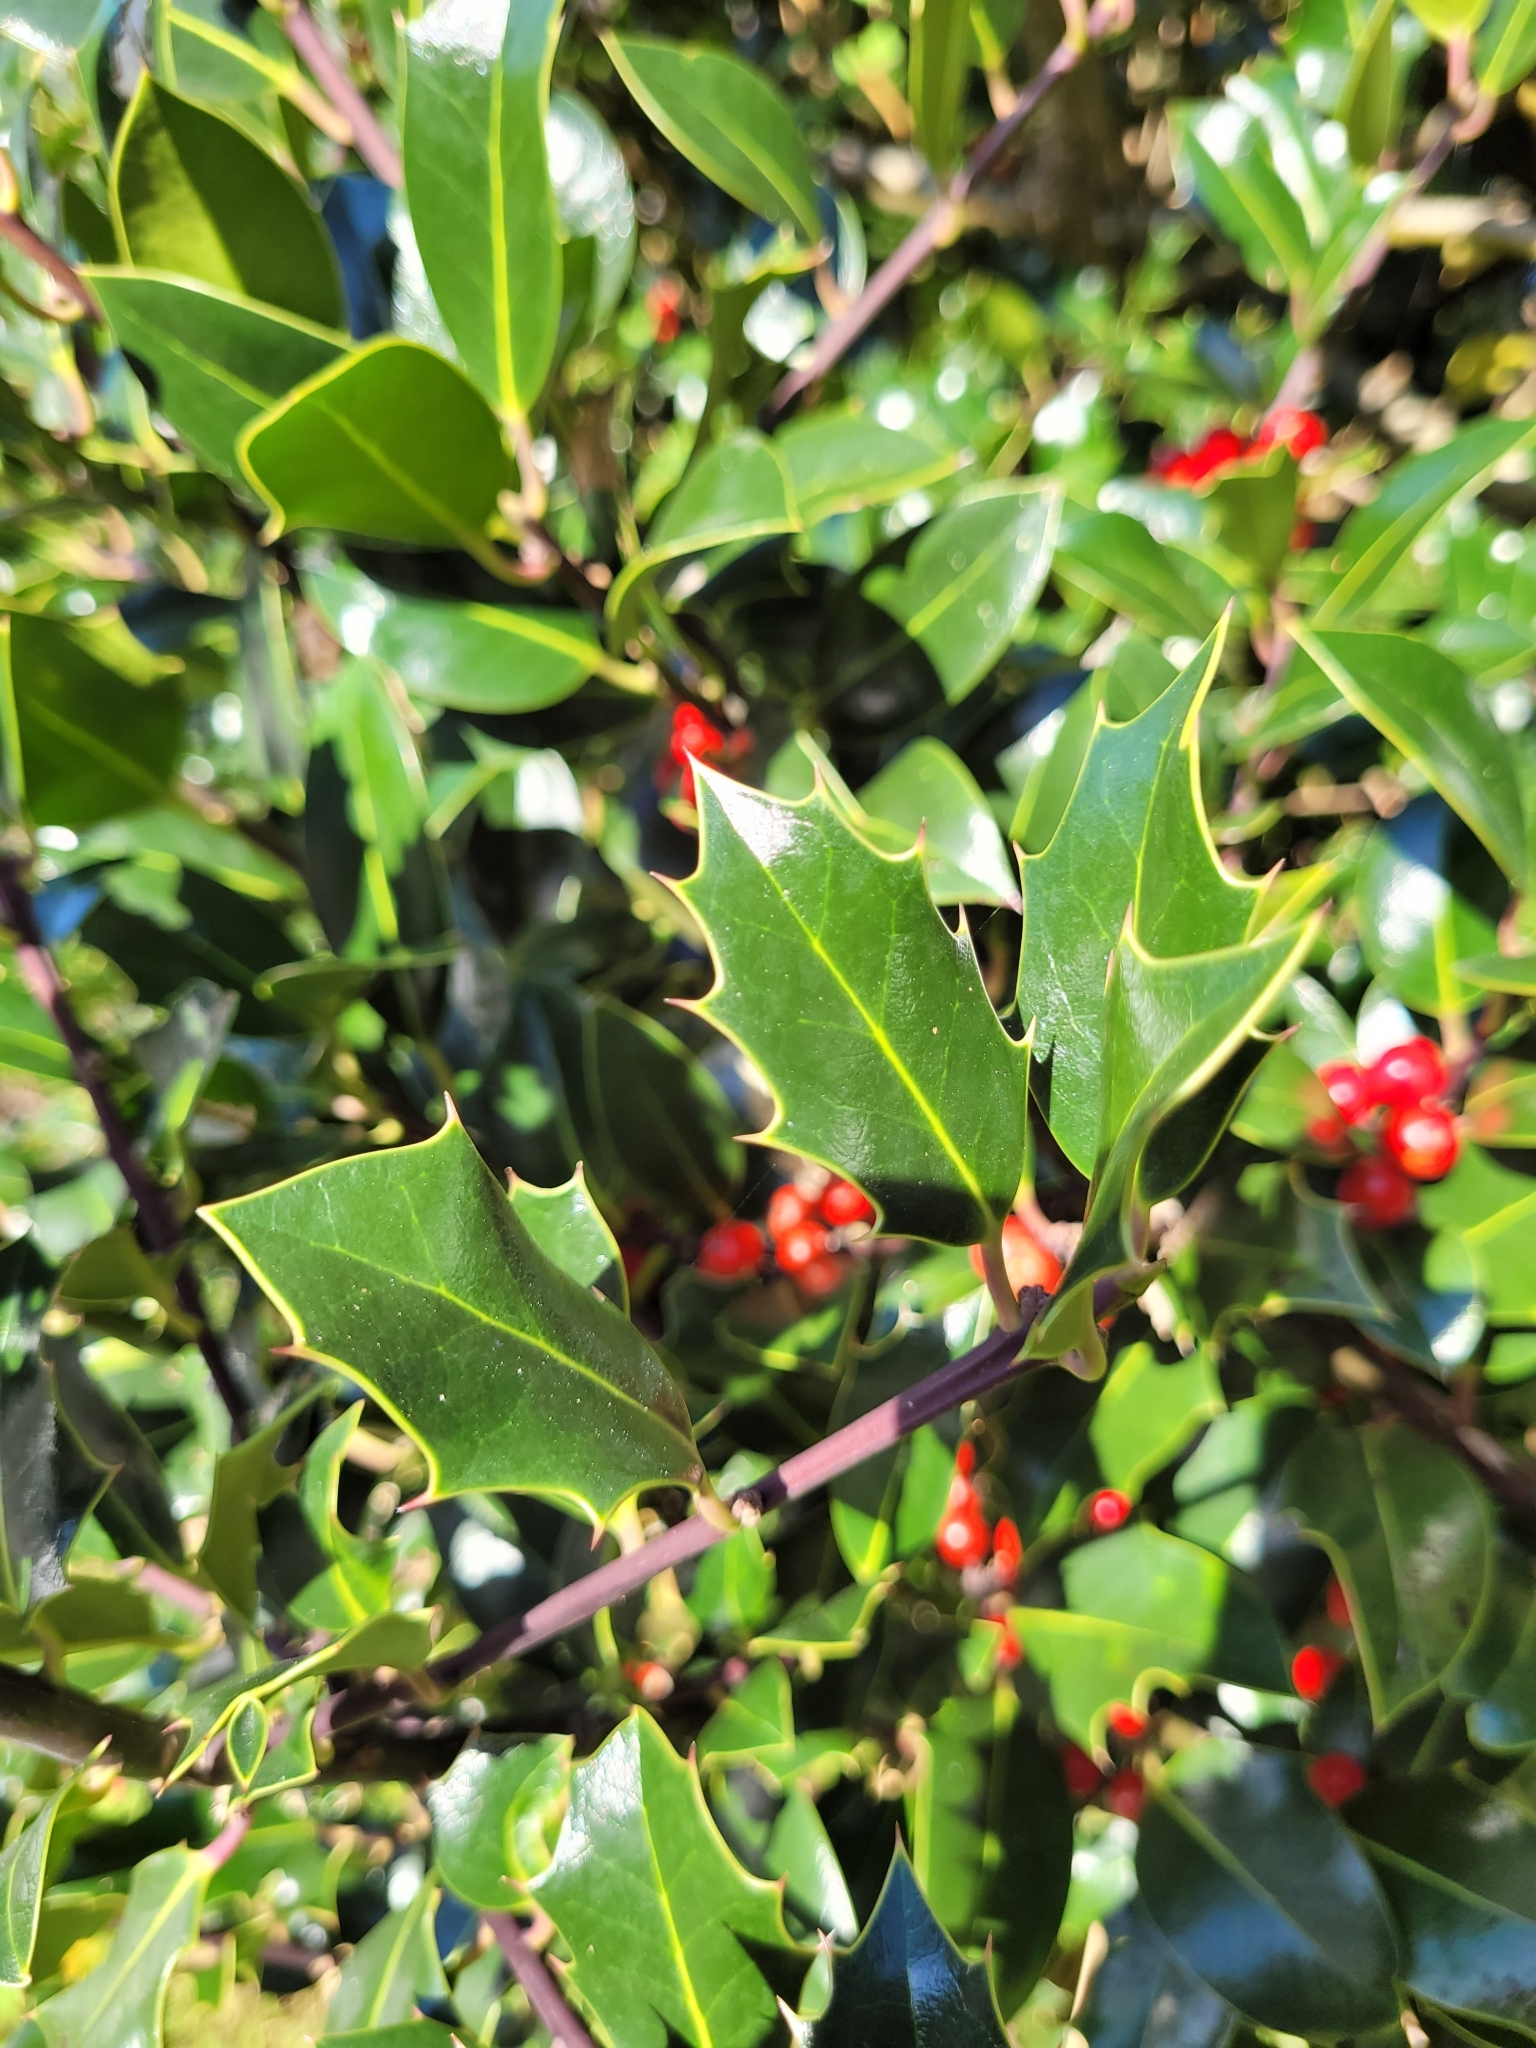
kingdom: Plantae
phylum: Tracheophyta
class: Magnoliopsida
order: Aquifoliales
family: Aquifoliaceae
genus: Ilex
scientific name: Ilex aquifolium
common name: English holly
